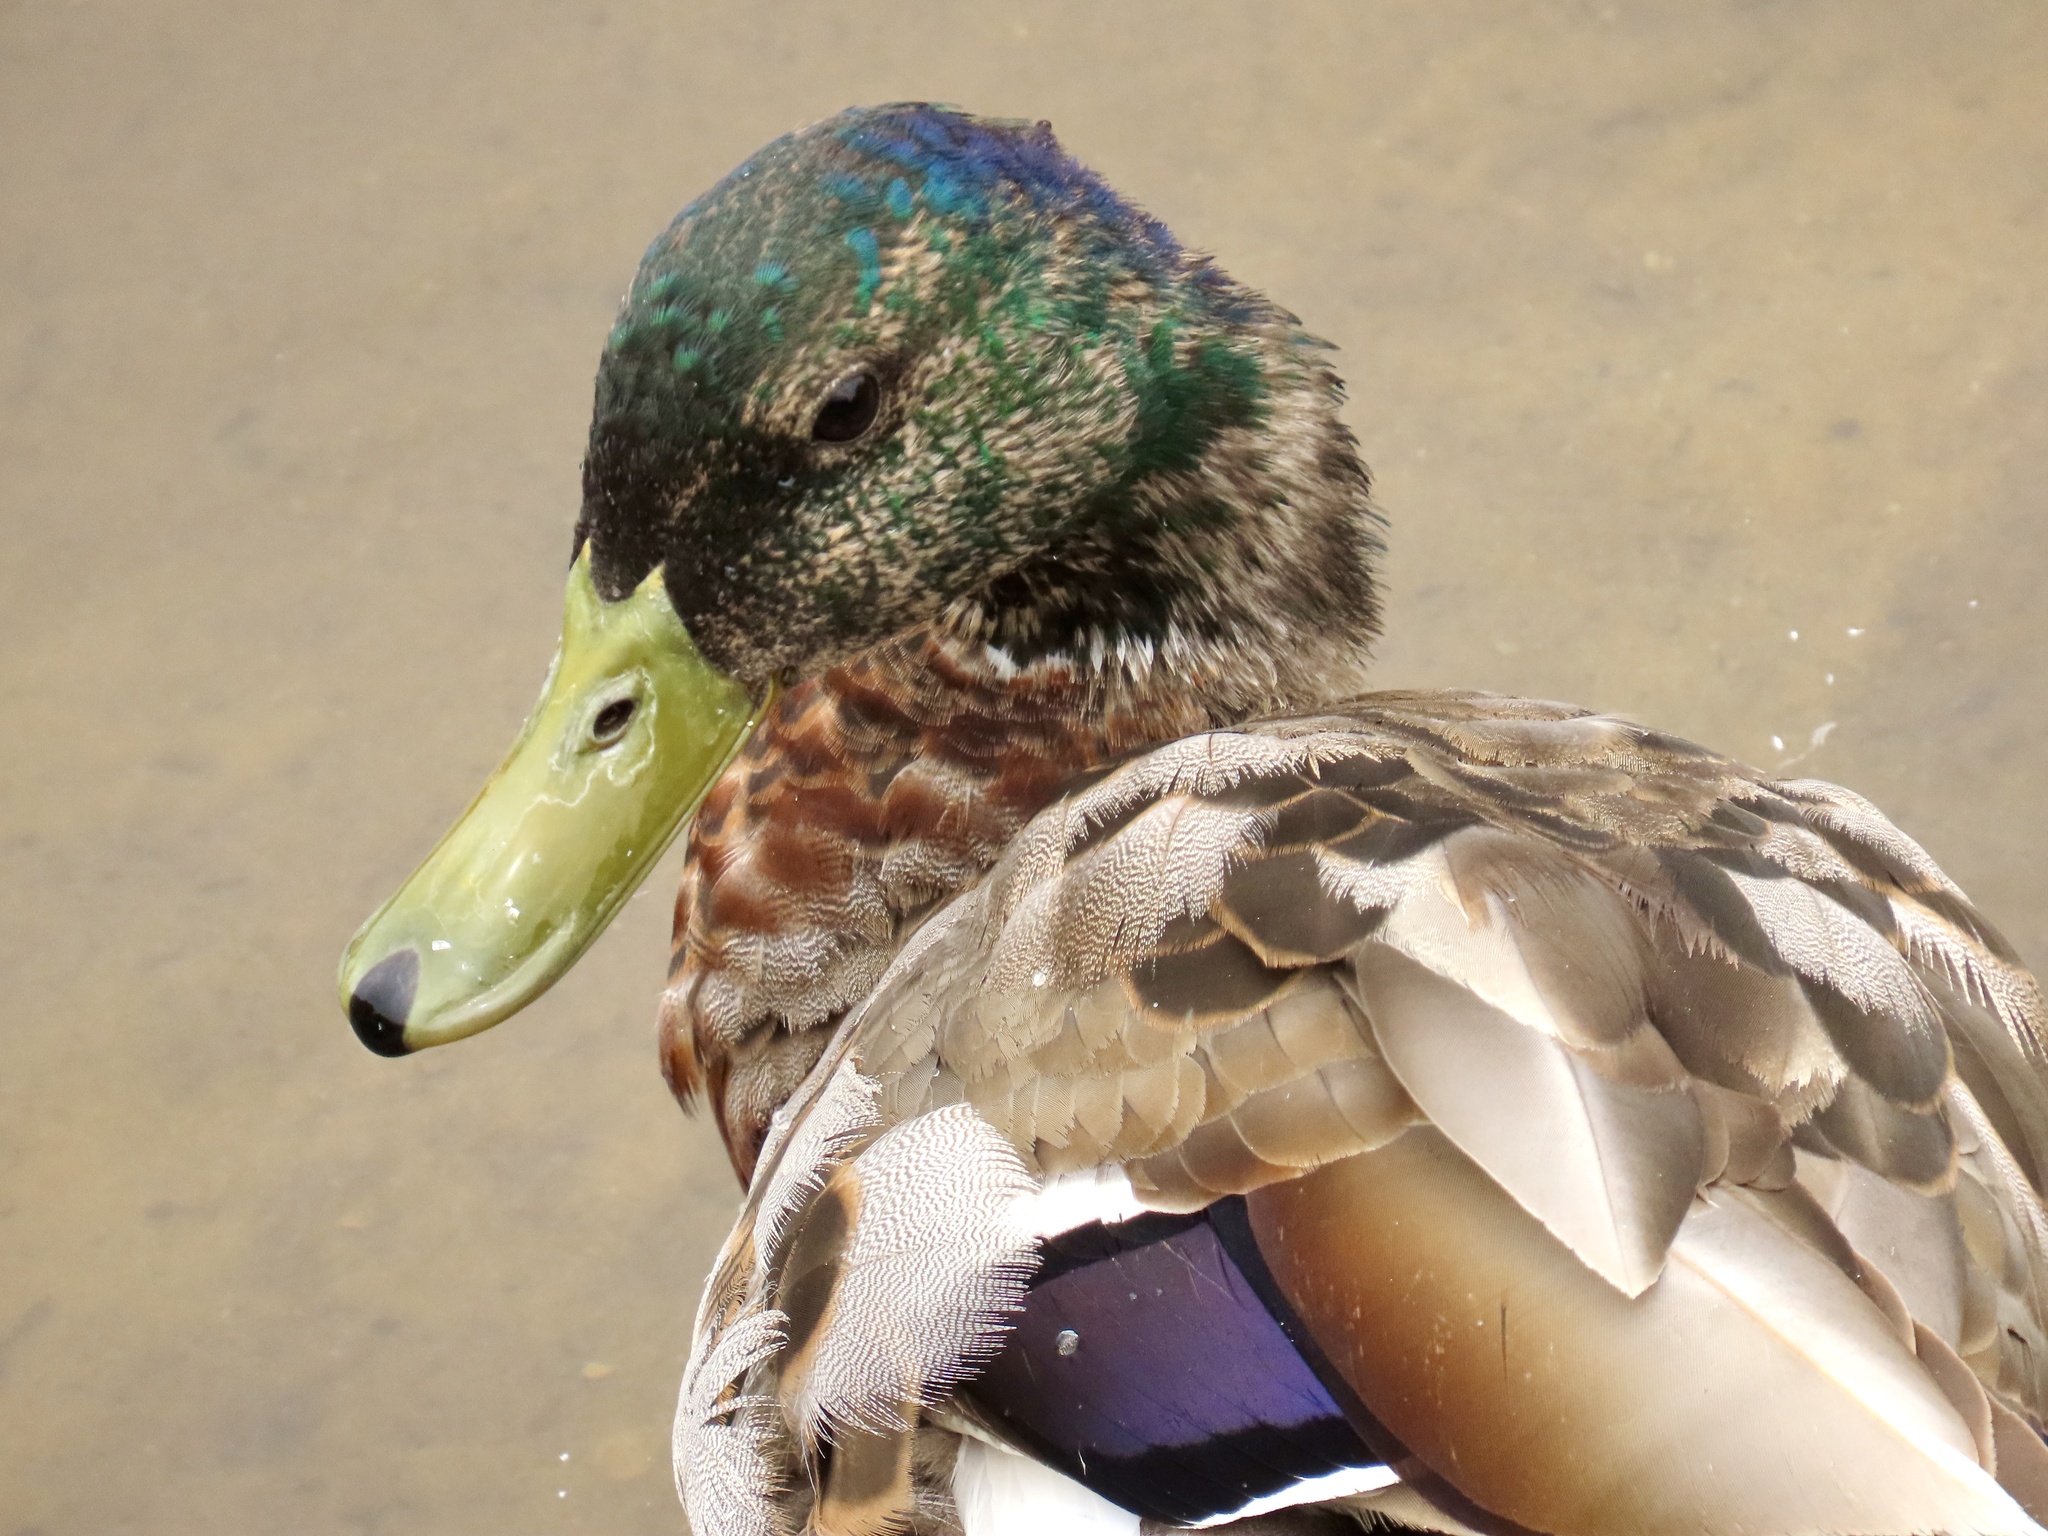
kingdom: Animalia
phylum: Chordata
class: Aves
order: Anseriformes
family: Anatidae
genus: Anas
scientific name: Anas platyrhynchos
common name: Mallard
